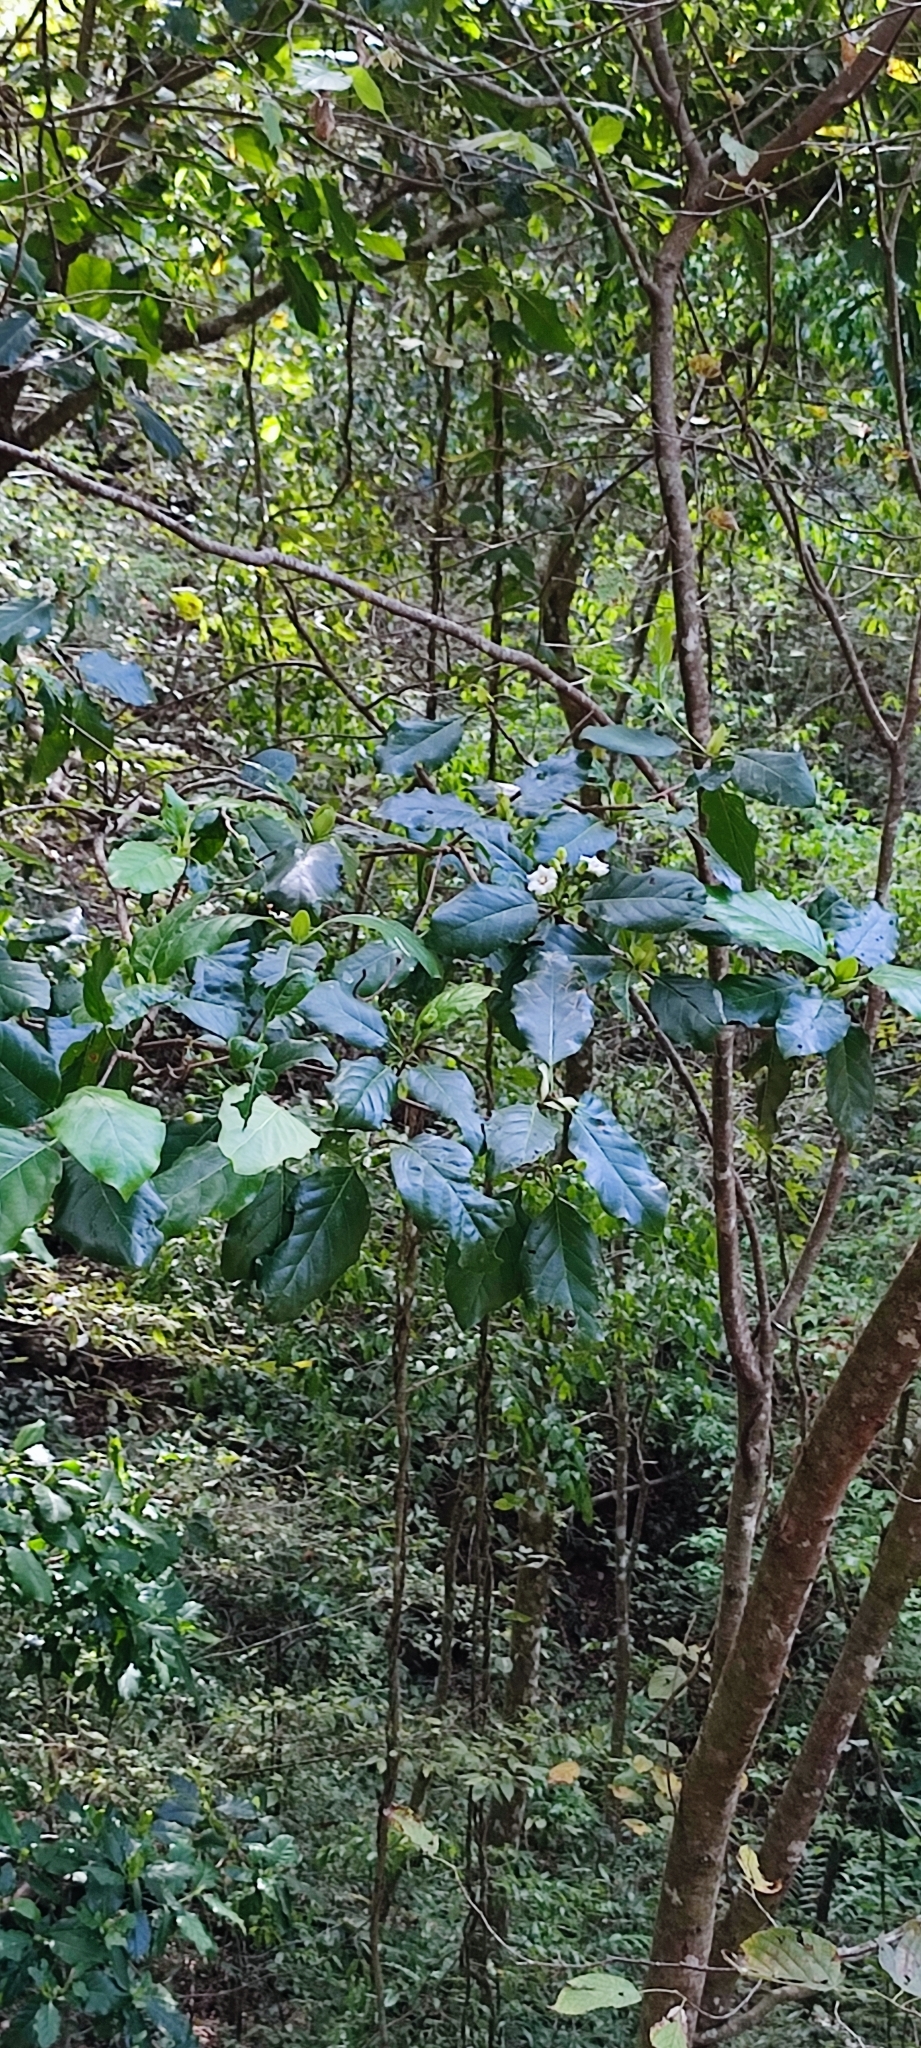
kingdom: Plantae
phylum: Tracheophyta
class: Magnoliopsida
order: Gentianales
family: Rubiaceae
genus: Glossostipula
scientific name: Glossostipula concinna
